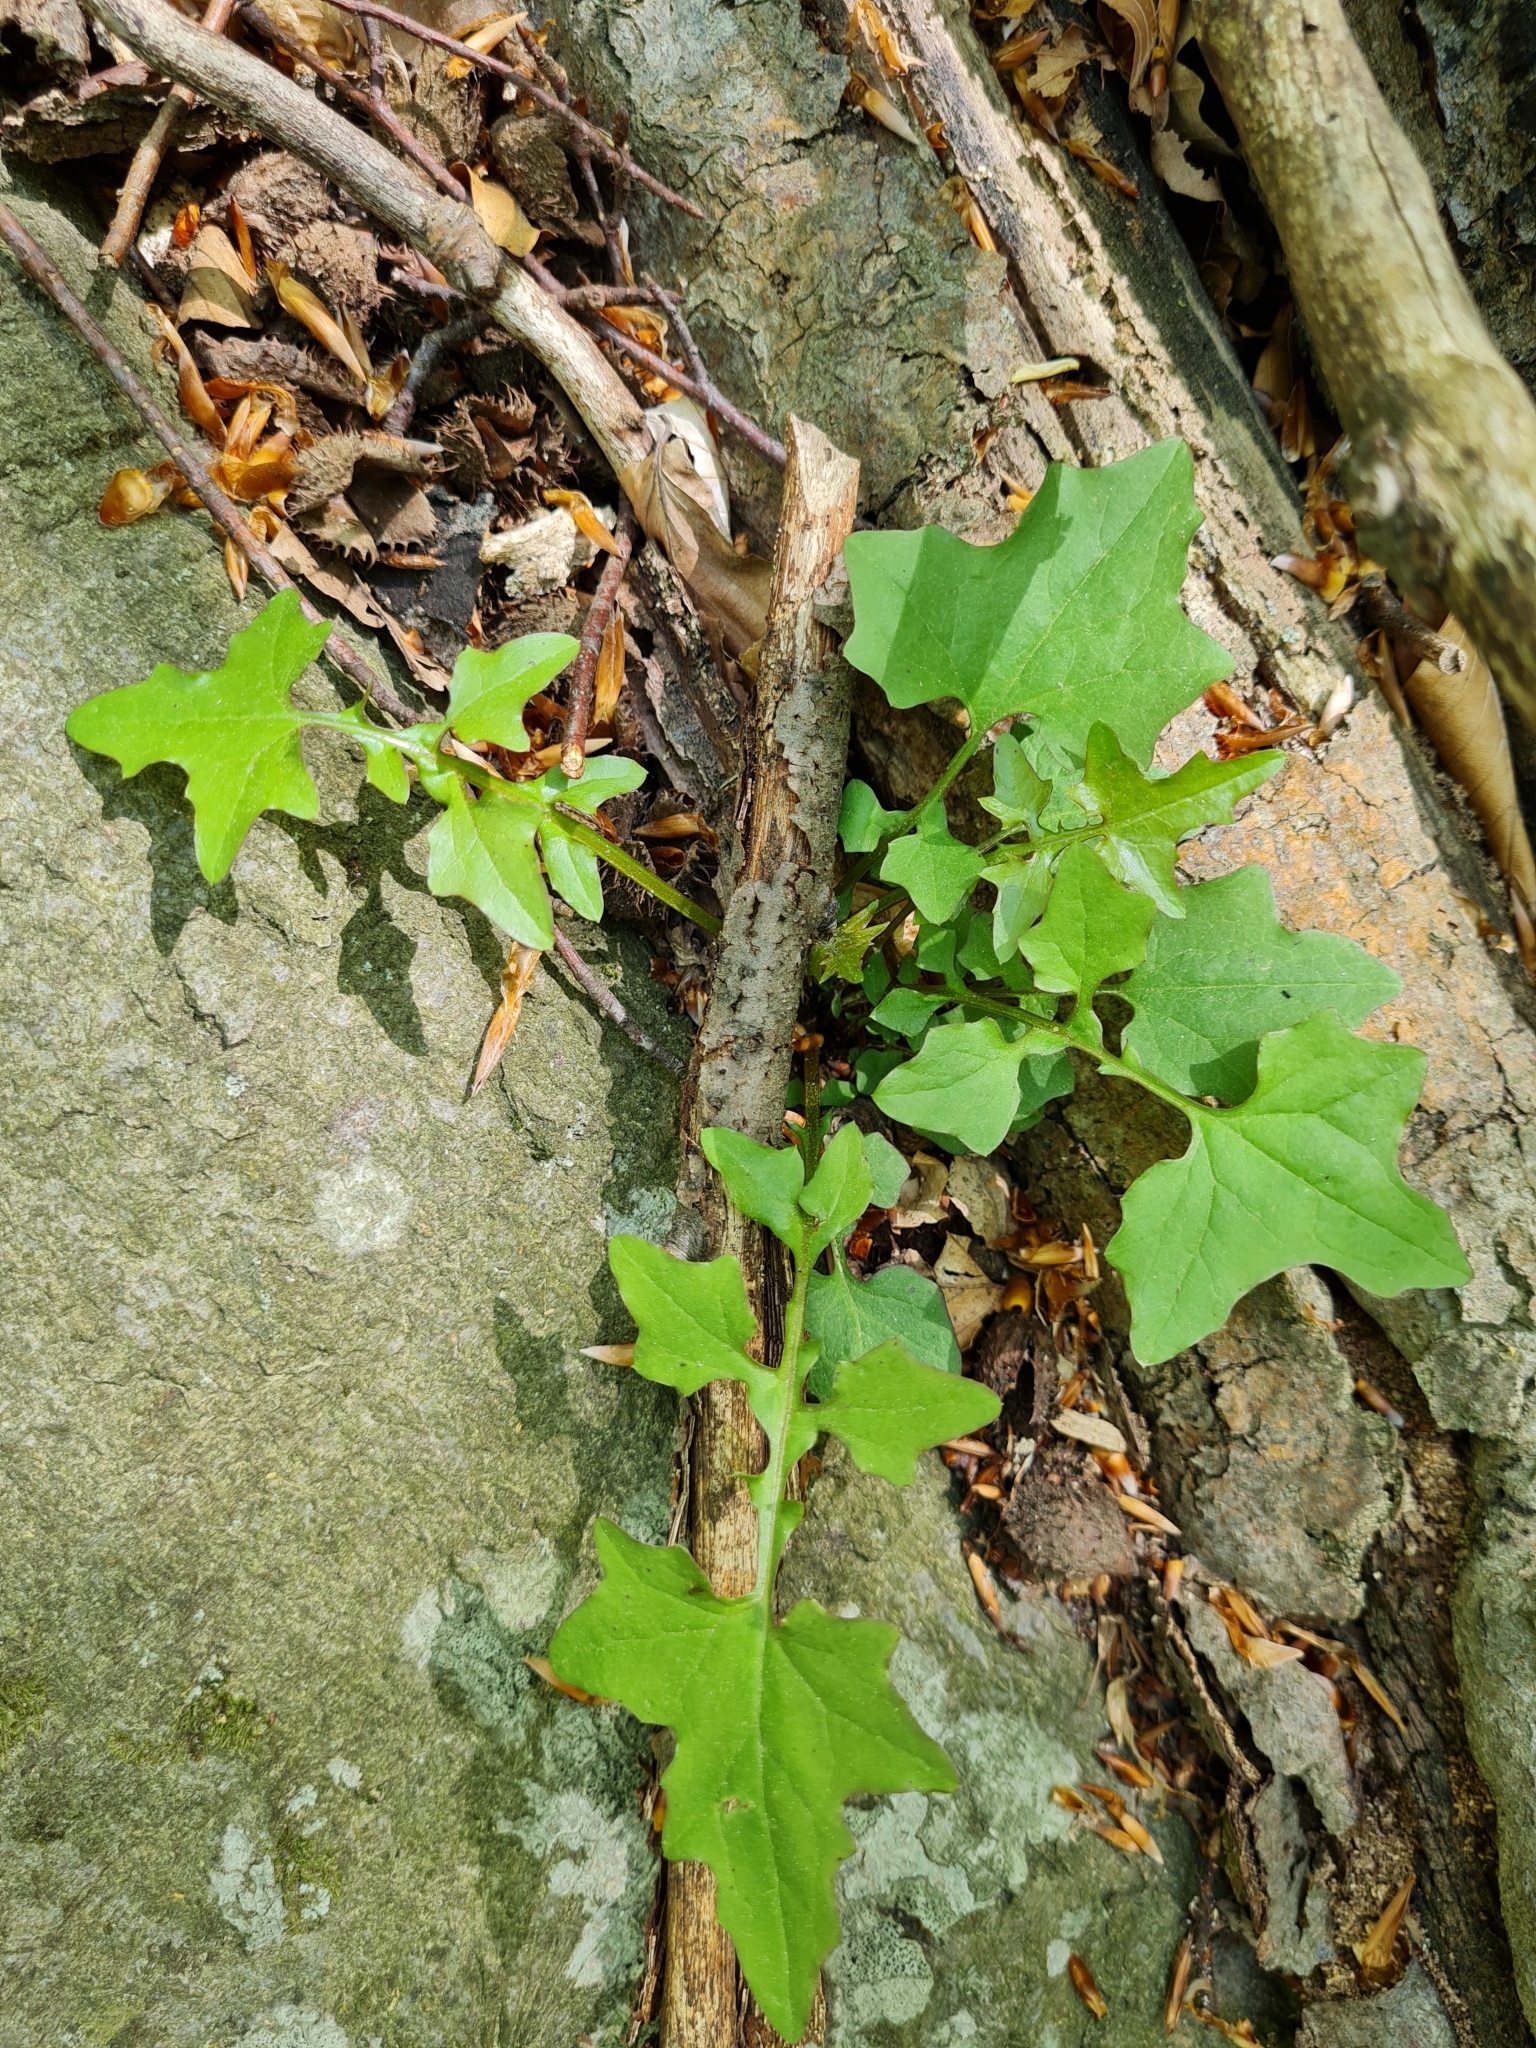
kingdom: Plantae
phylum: Tracheophyta
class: Magnoliopsida
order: Asterales
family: Asteraceae
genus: Mycelis
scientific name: Mycelis muralis
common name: Wall lettuce
